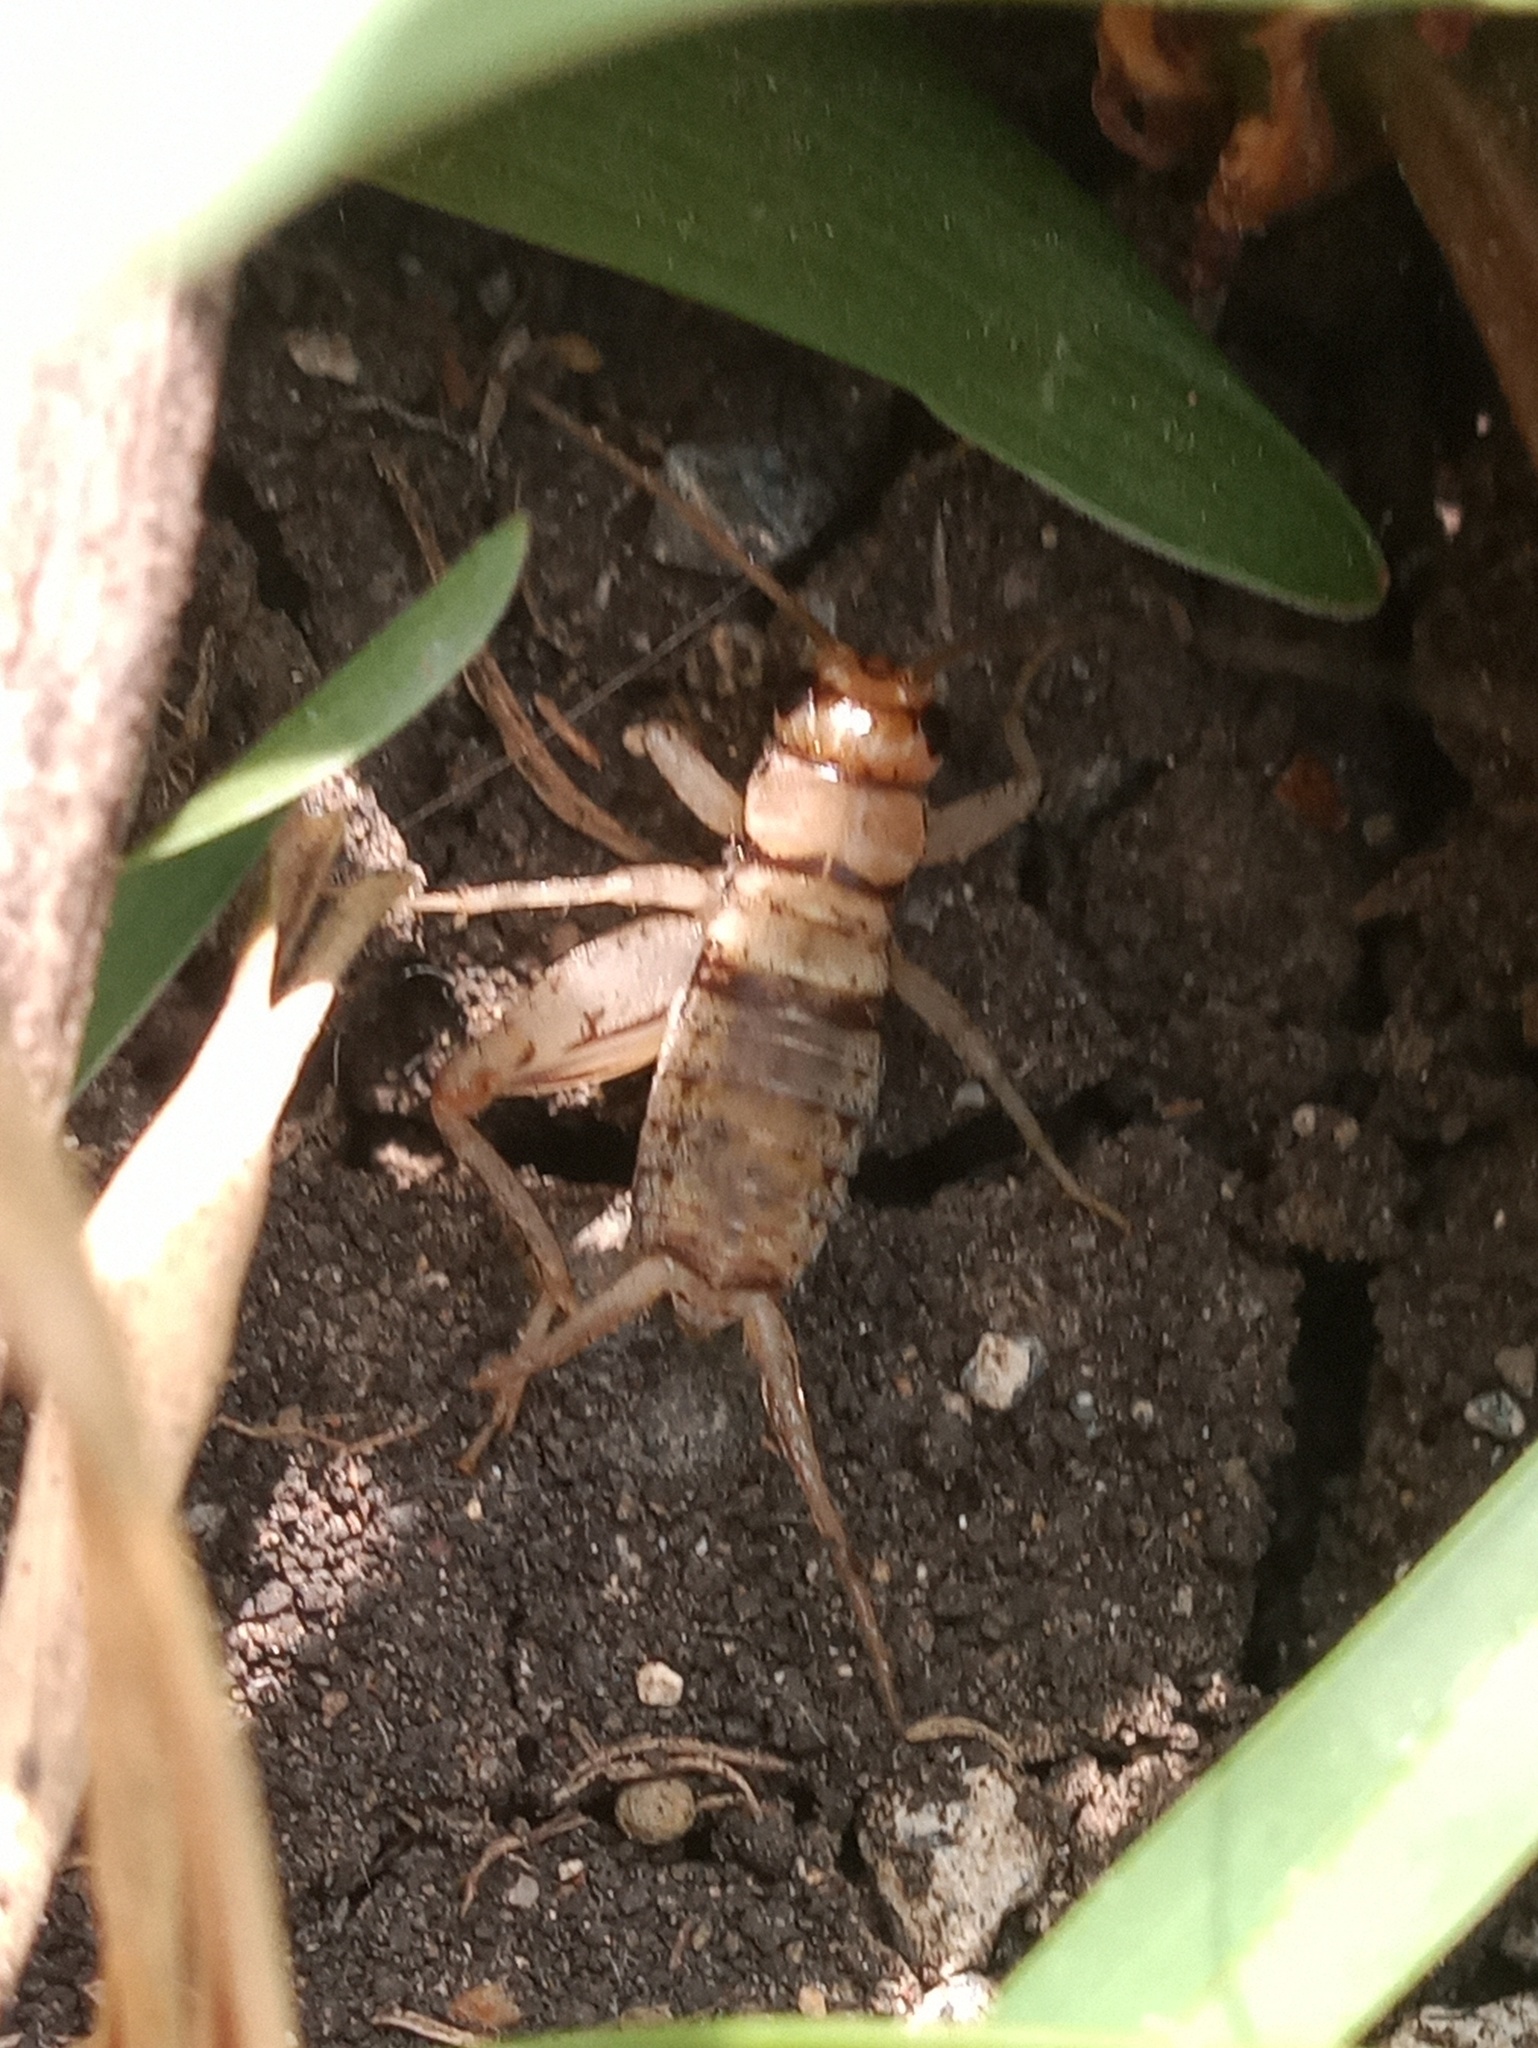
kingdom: Animalia
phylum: Arthropoda
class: Insecta
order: Orthoptera
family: Gryllidae
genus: Gryllodes
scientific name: Gryllodes sigillatus
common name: Tropical house cricket
